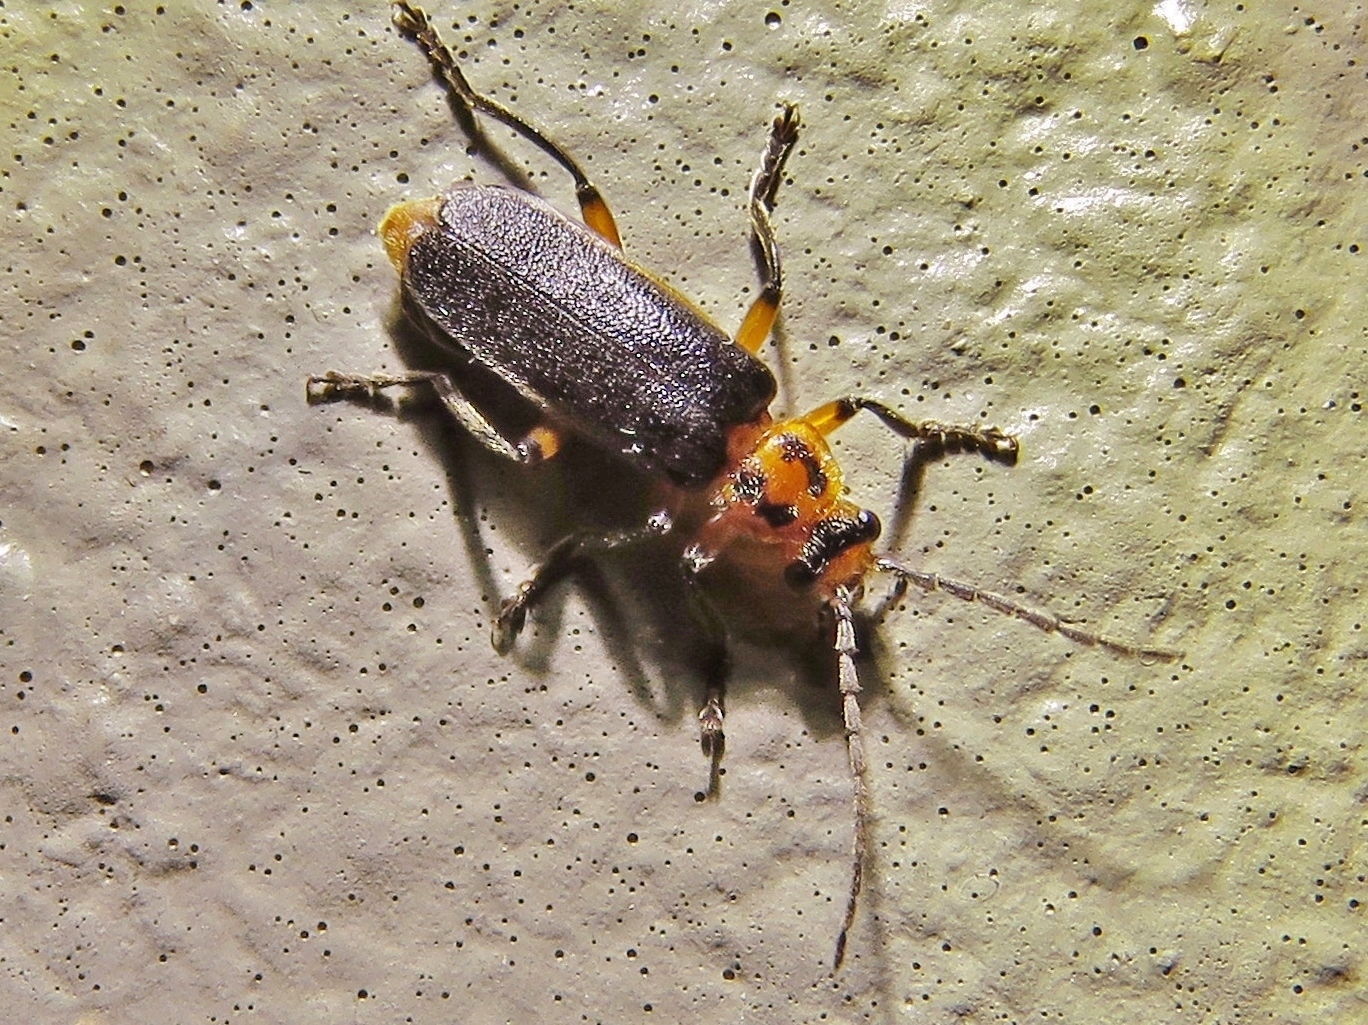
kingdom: Animalia
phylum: Arthropoda
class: Insecta
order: Coleoptera
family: Cantharidae
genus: Atalantycha
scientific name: Atalantycha bilineata
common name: Two-lined leatherwing
